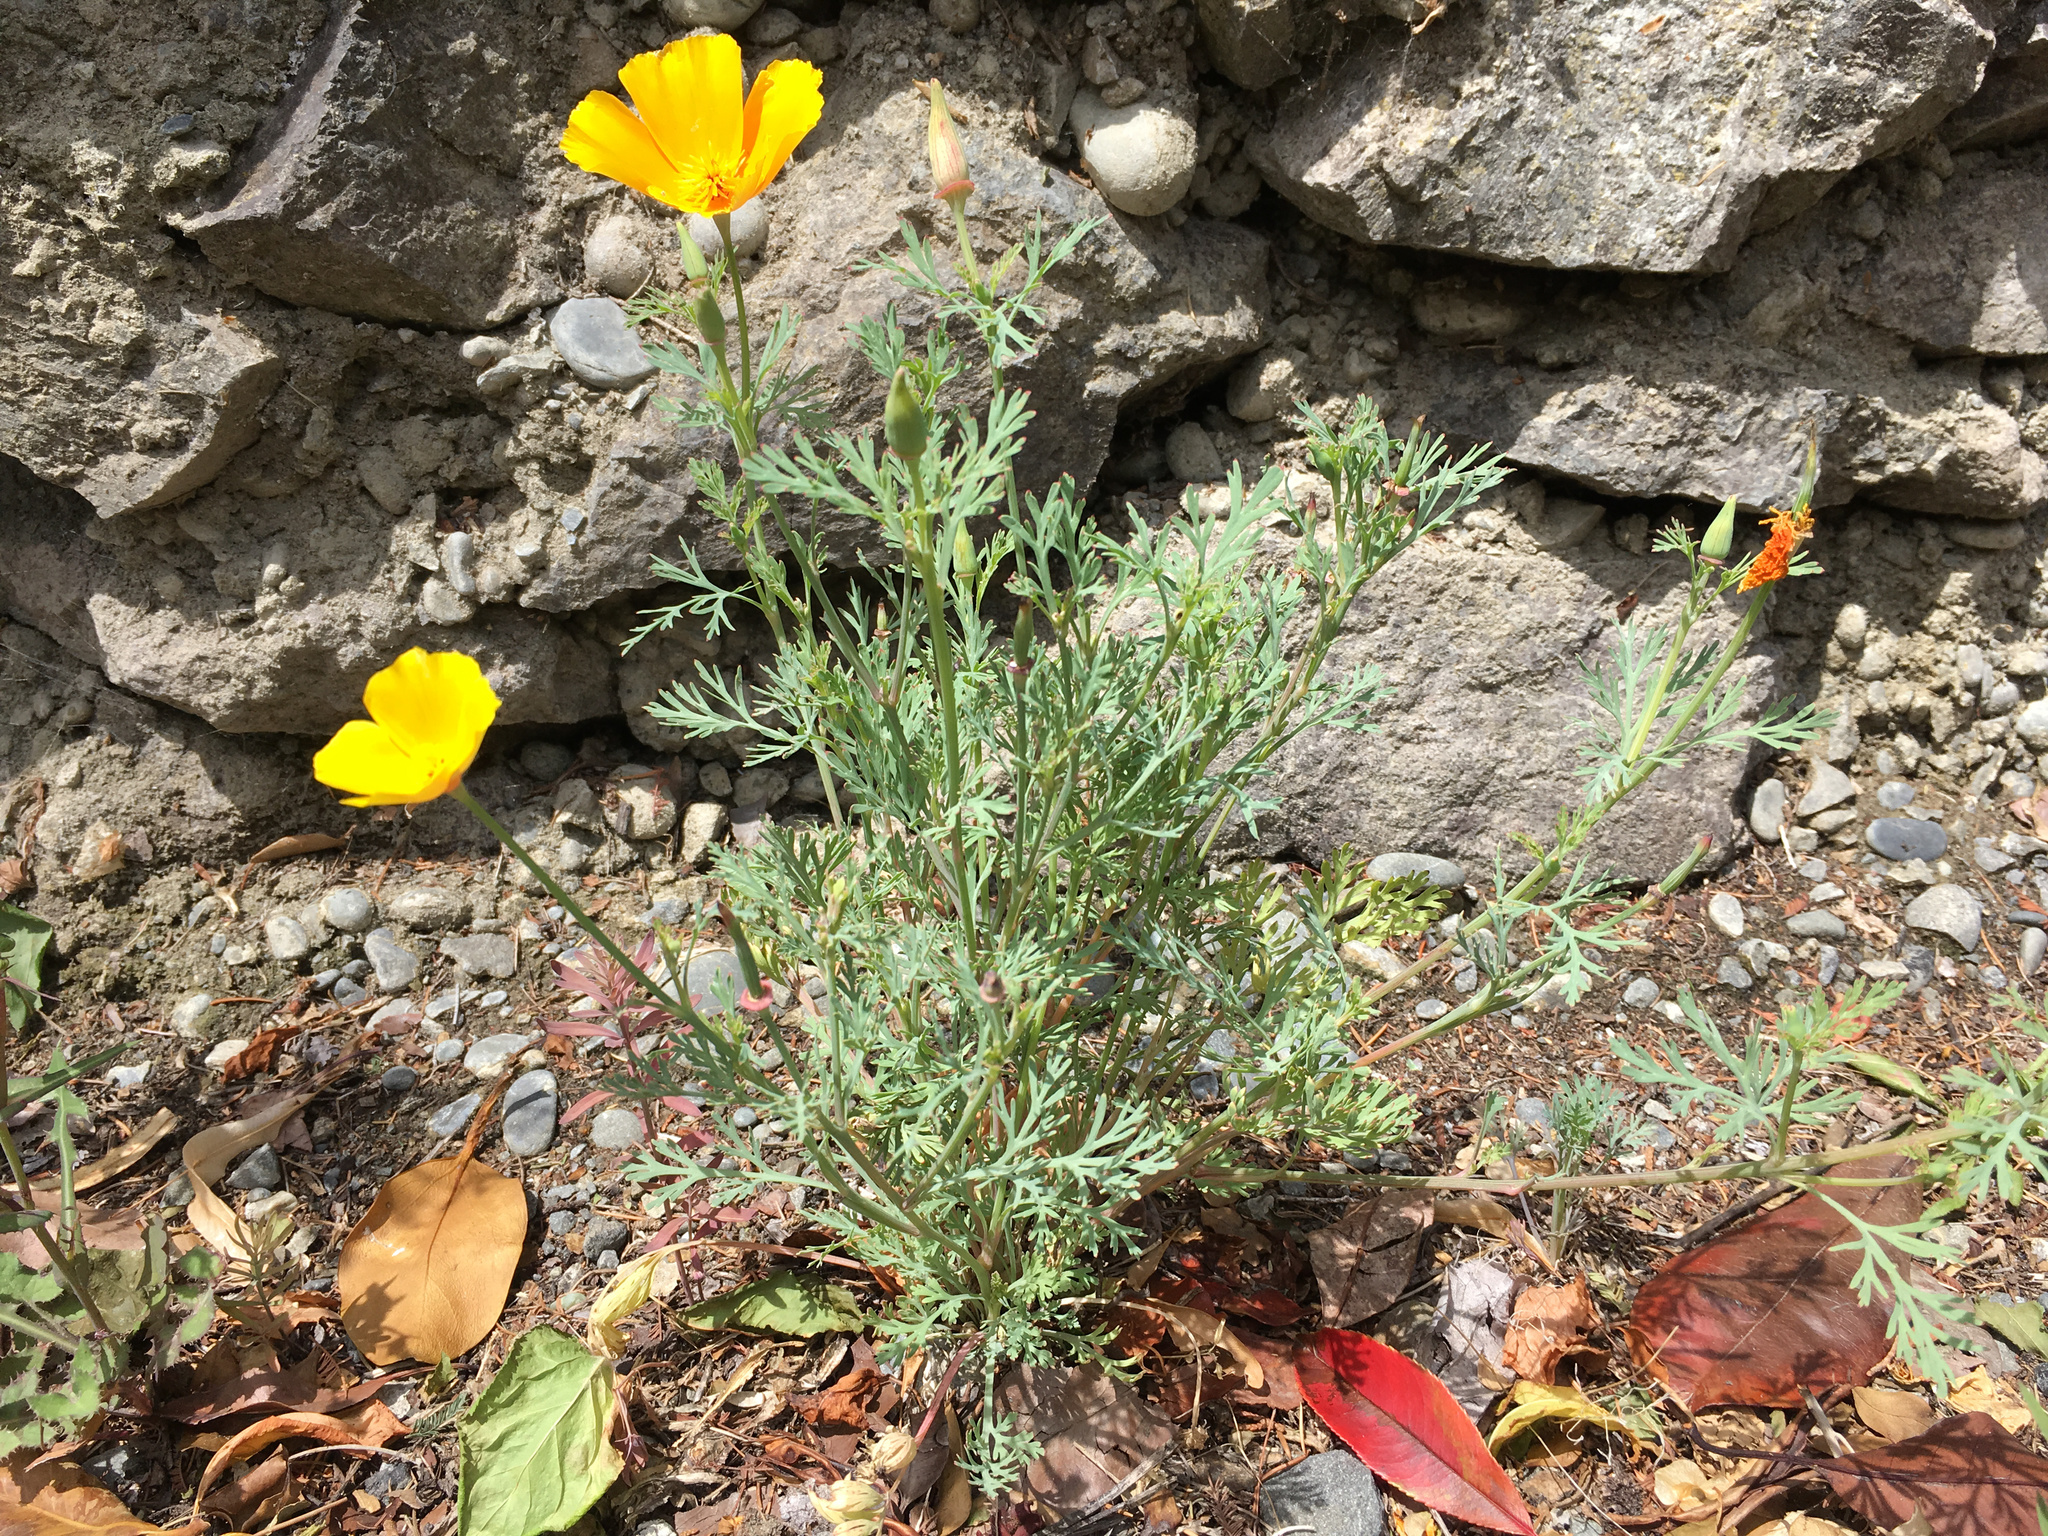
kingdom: Plantae
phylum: Tracheophyta
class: Magnoliopsida
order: Ranunculales
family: Papaveraceae
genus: Eschscholzia
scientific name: Eschscholzia californica
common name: California poppy
